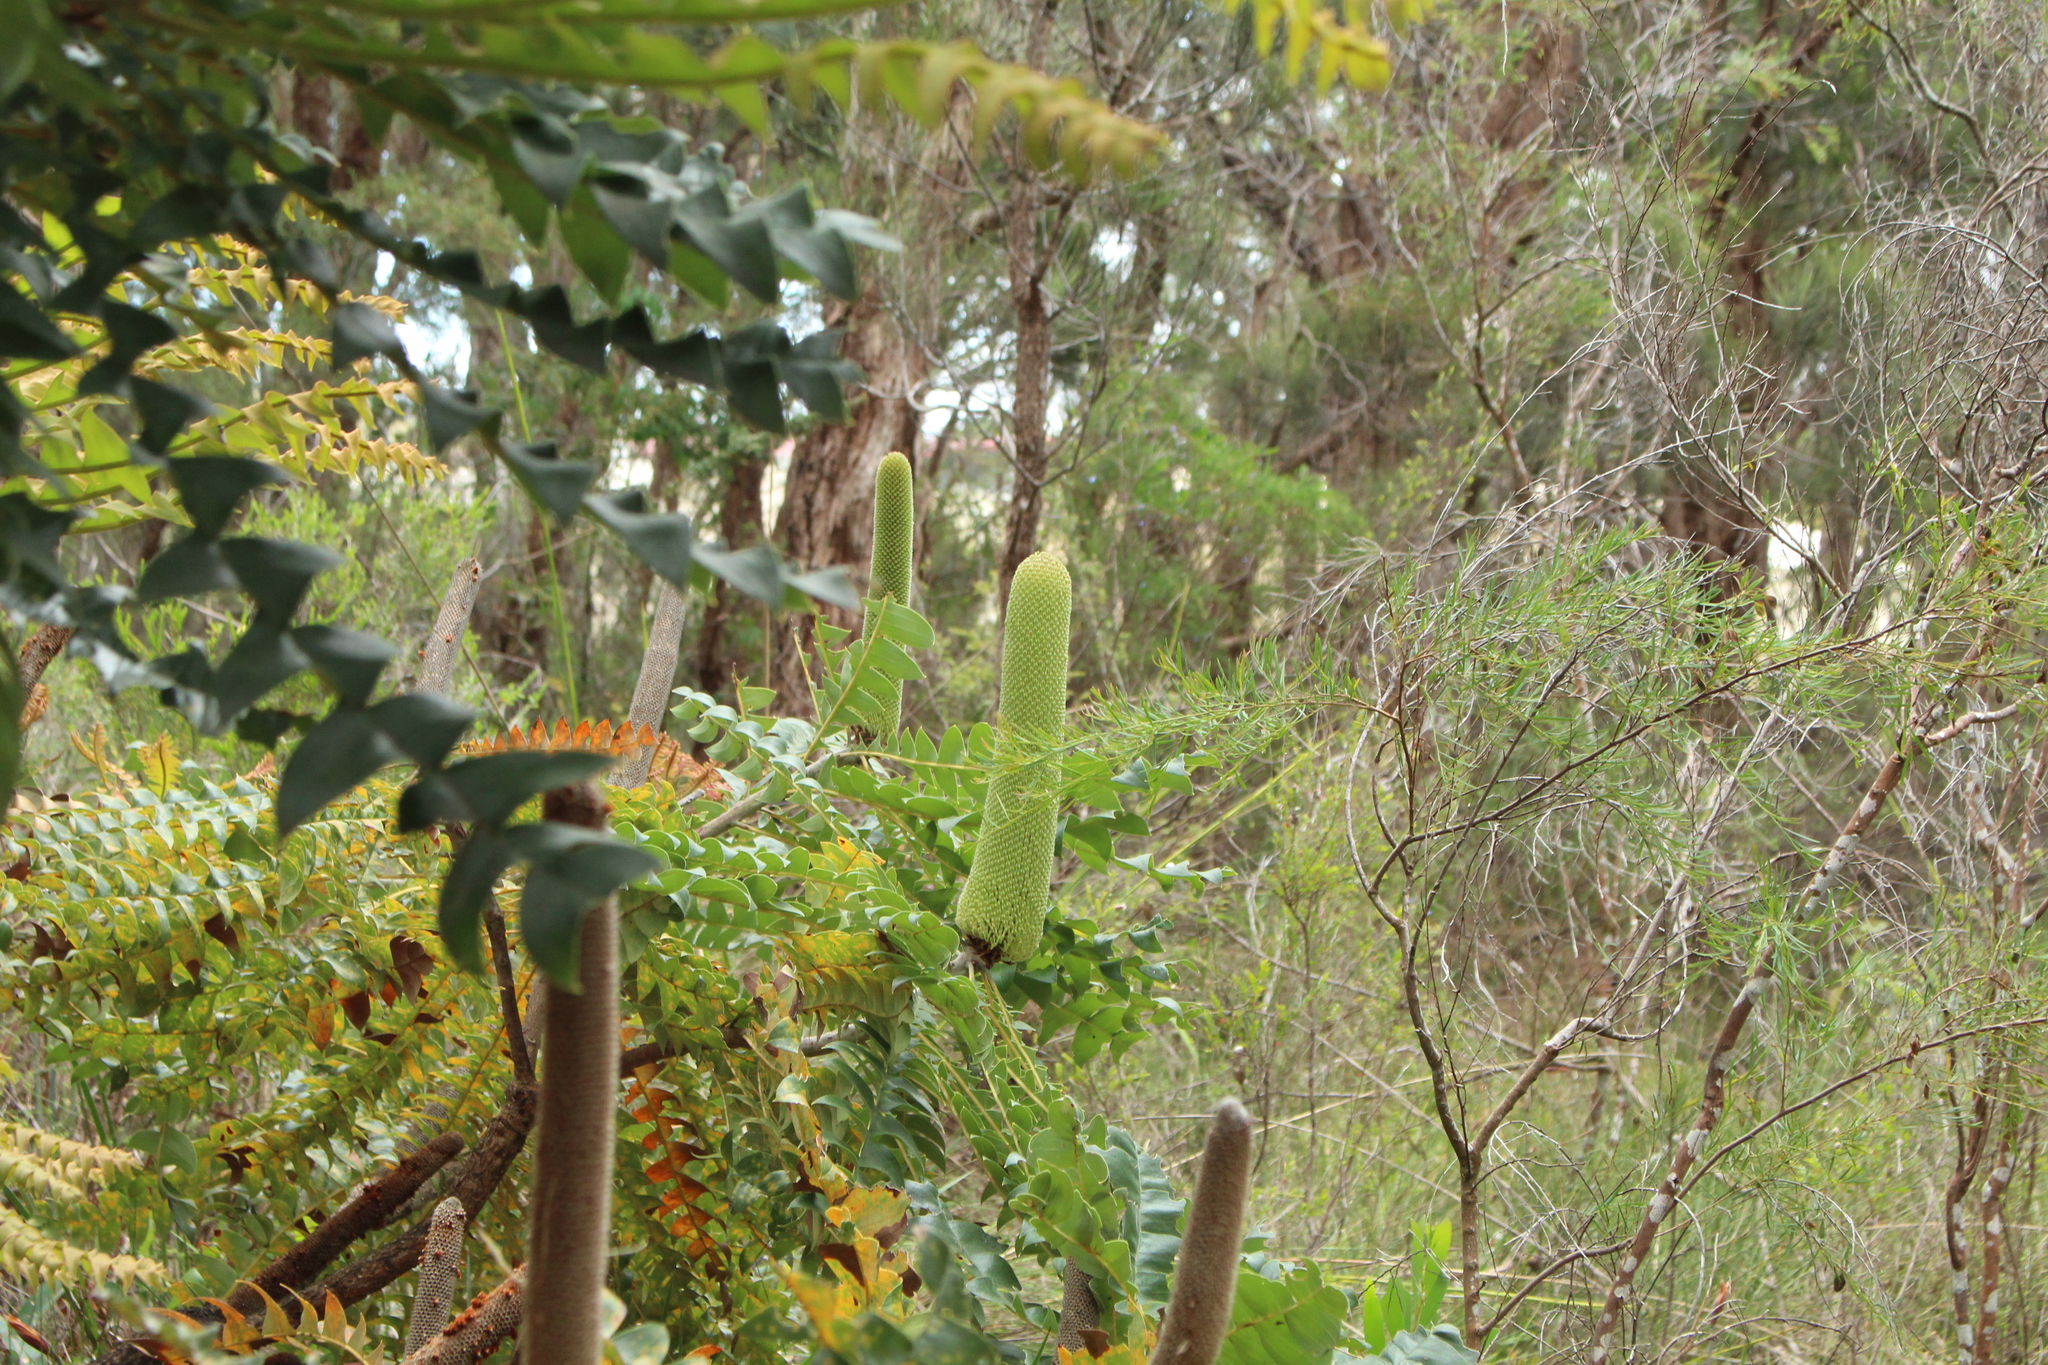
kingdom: Plantae
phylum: Tracheophyta
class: Magnoliopsida
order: Proteales
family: Proteaceae
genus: Banksia
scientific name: Banksia grandis
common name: Giant banksia
